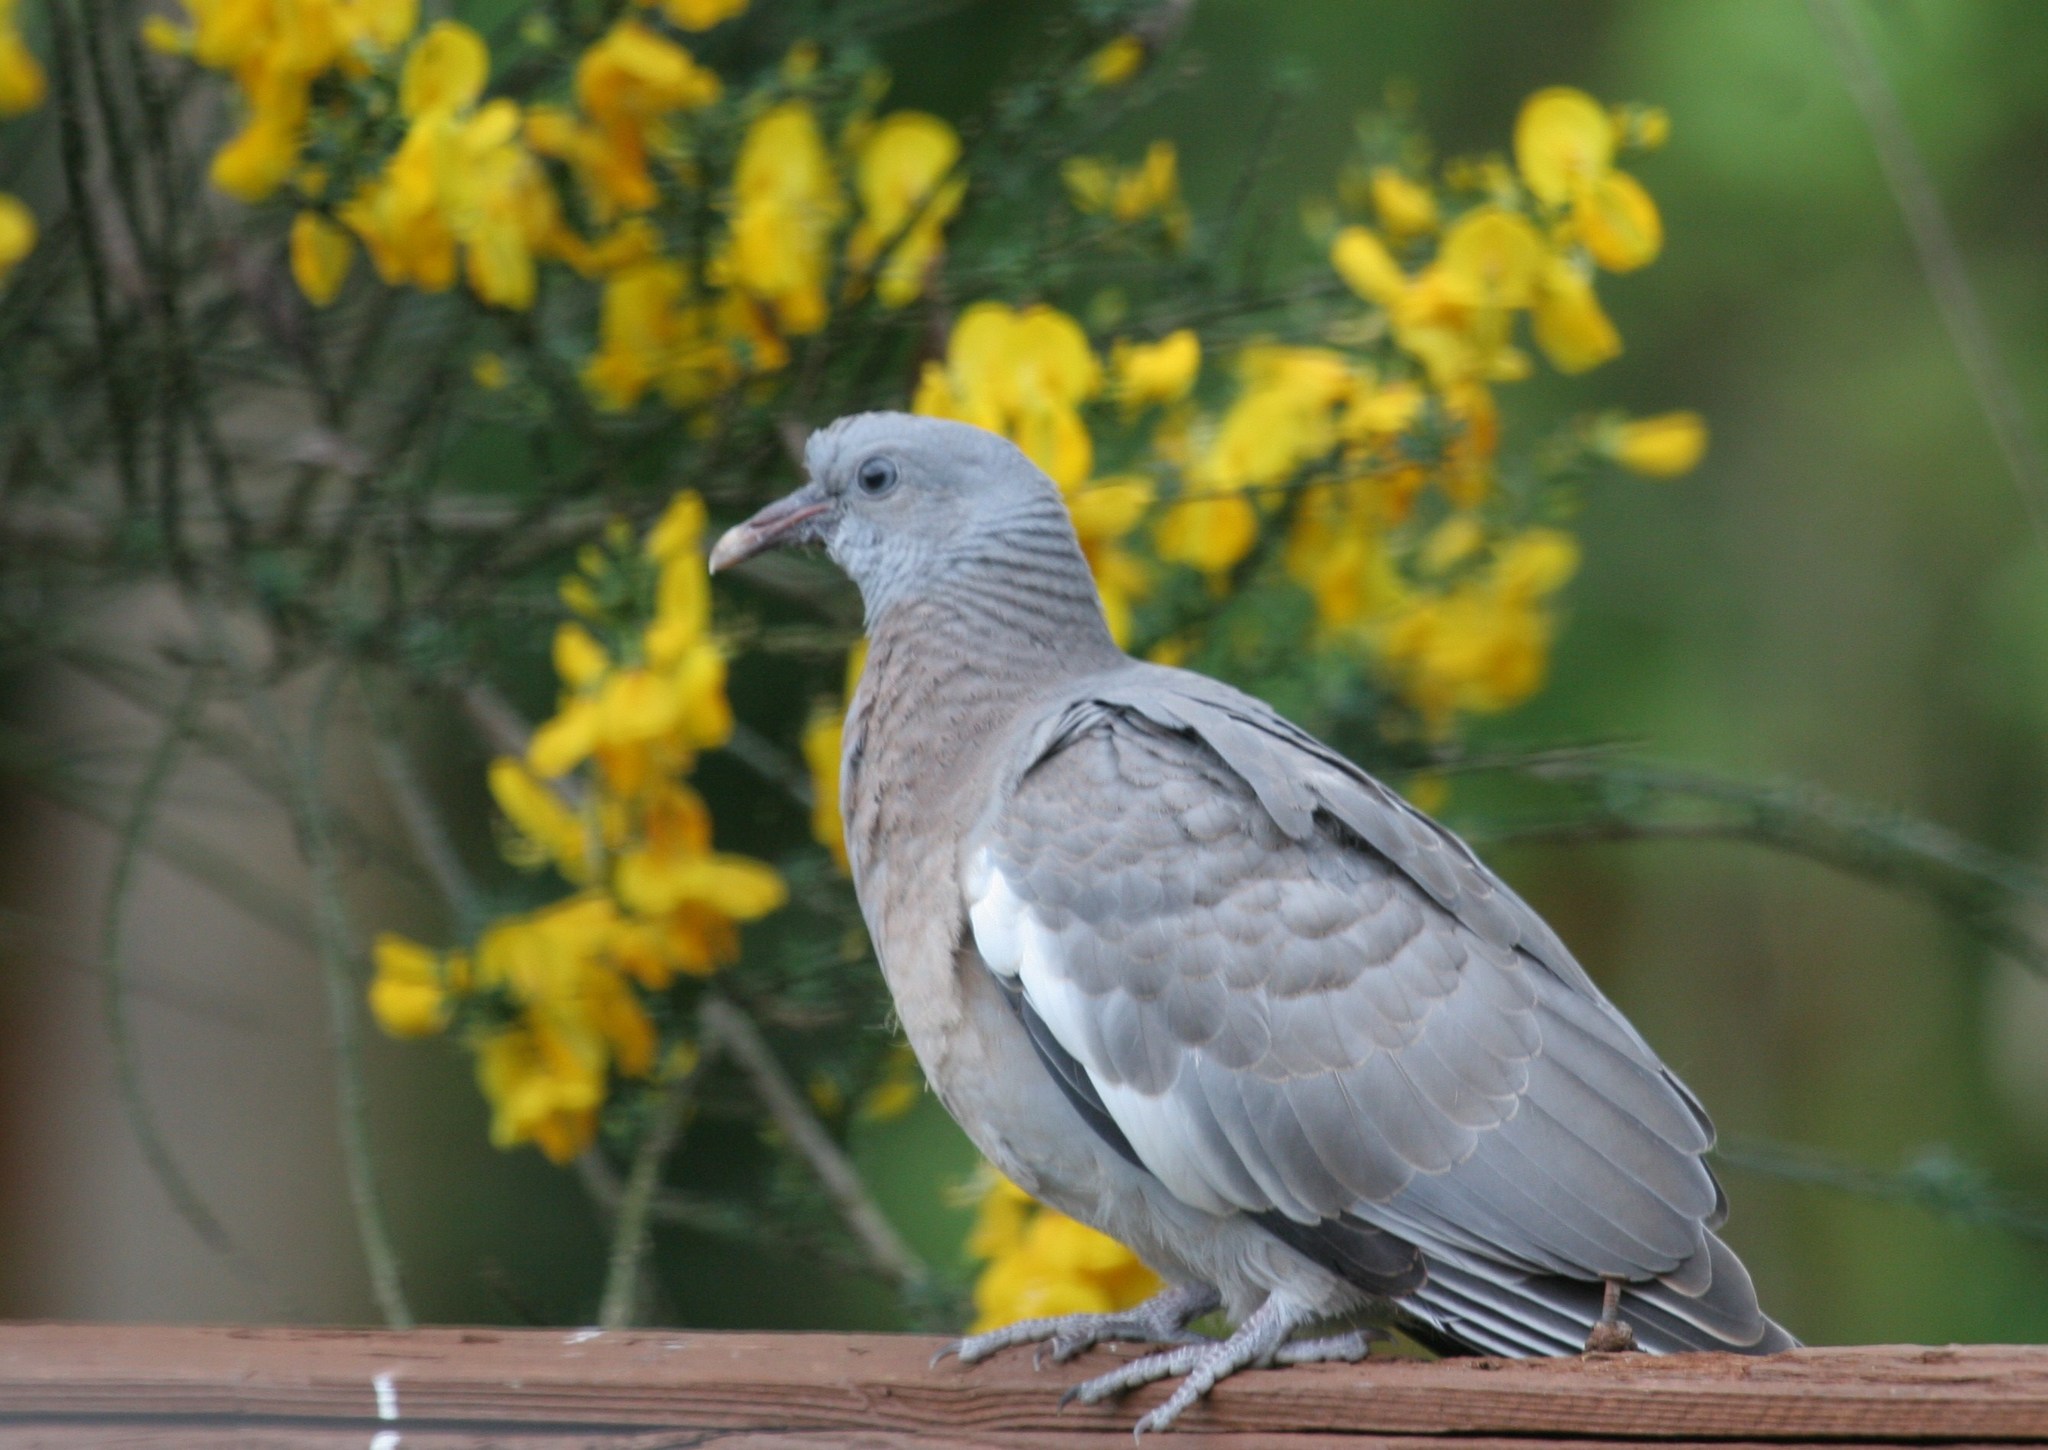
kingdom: Animalia
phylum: Chordata
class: Aves
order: Columbiformes
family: Columbidae
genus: Columba
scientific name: Columba palumbus
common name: Common wood pigeon
